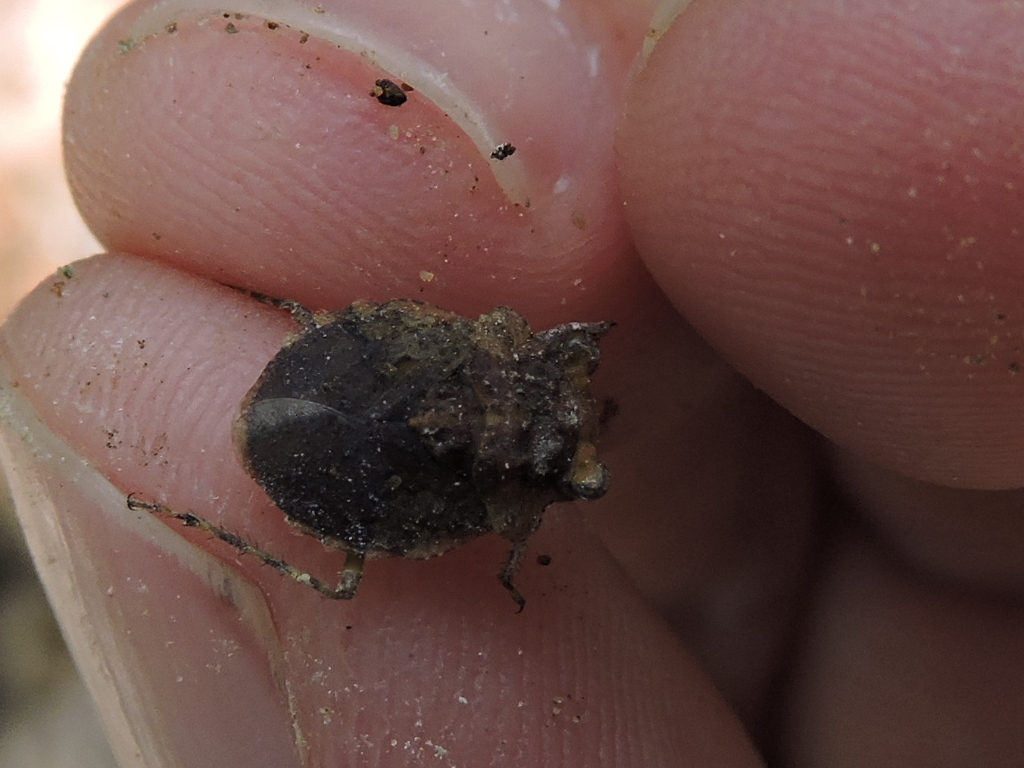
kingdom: Animalia
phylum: Arthropoda
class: Insecta
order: Hemiptera
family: Gelastocoridae
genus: Gelastocoris
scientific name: Gelastocoris oculatus
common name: Toad bug
